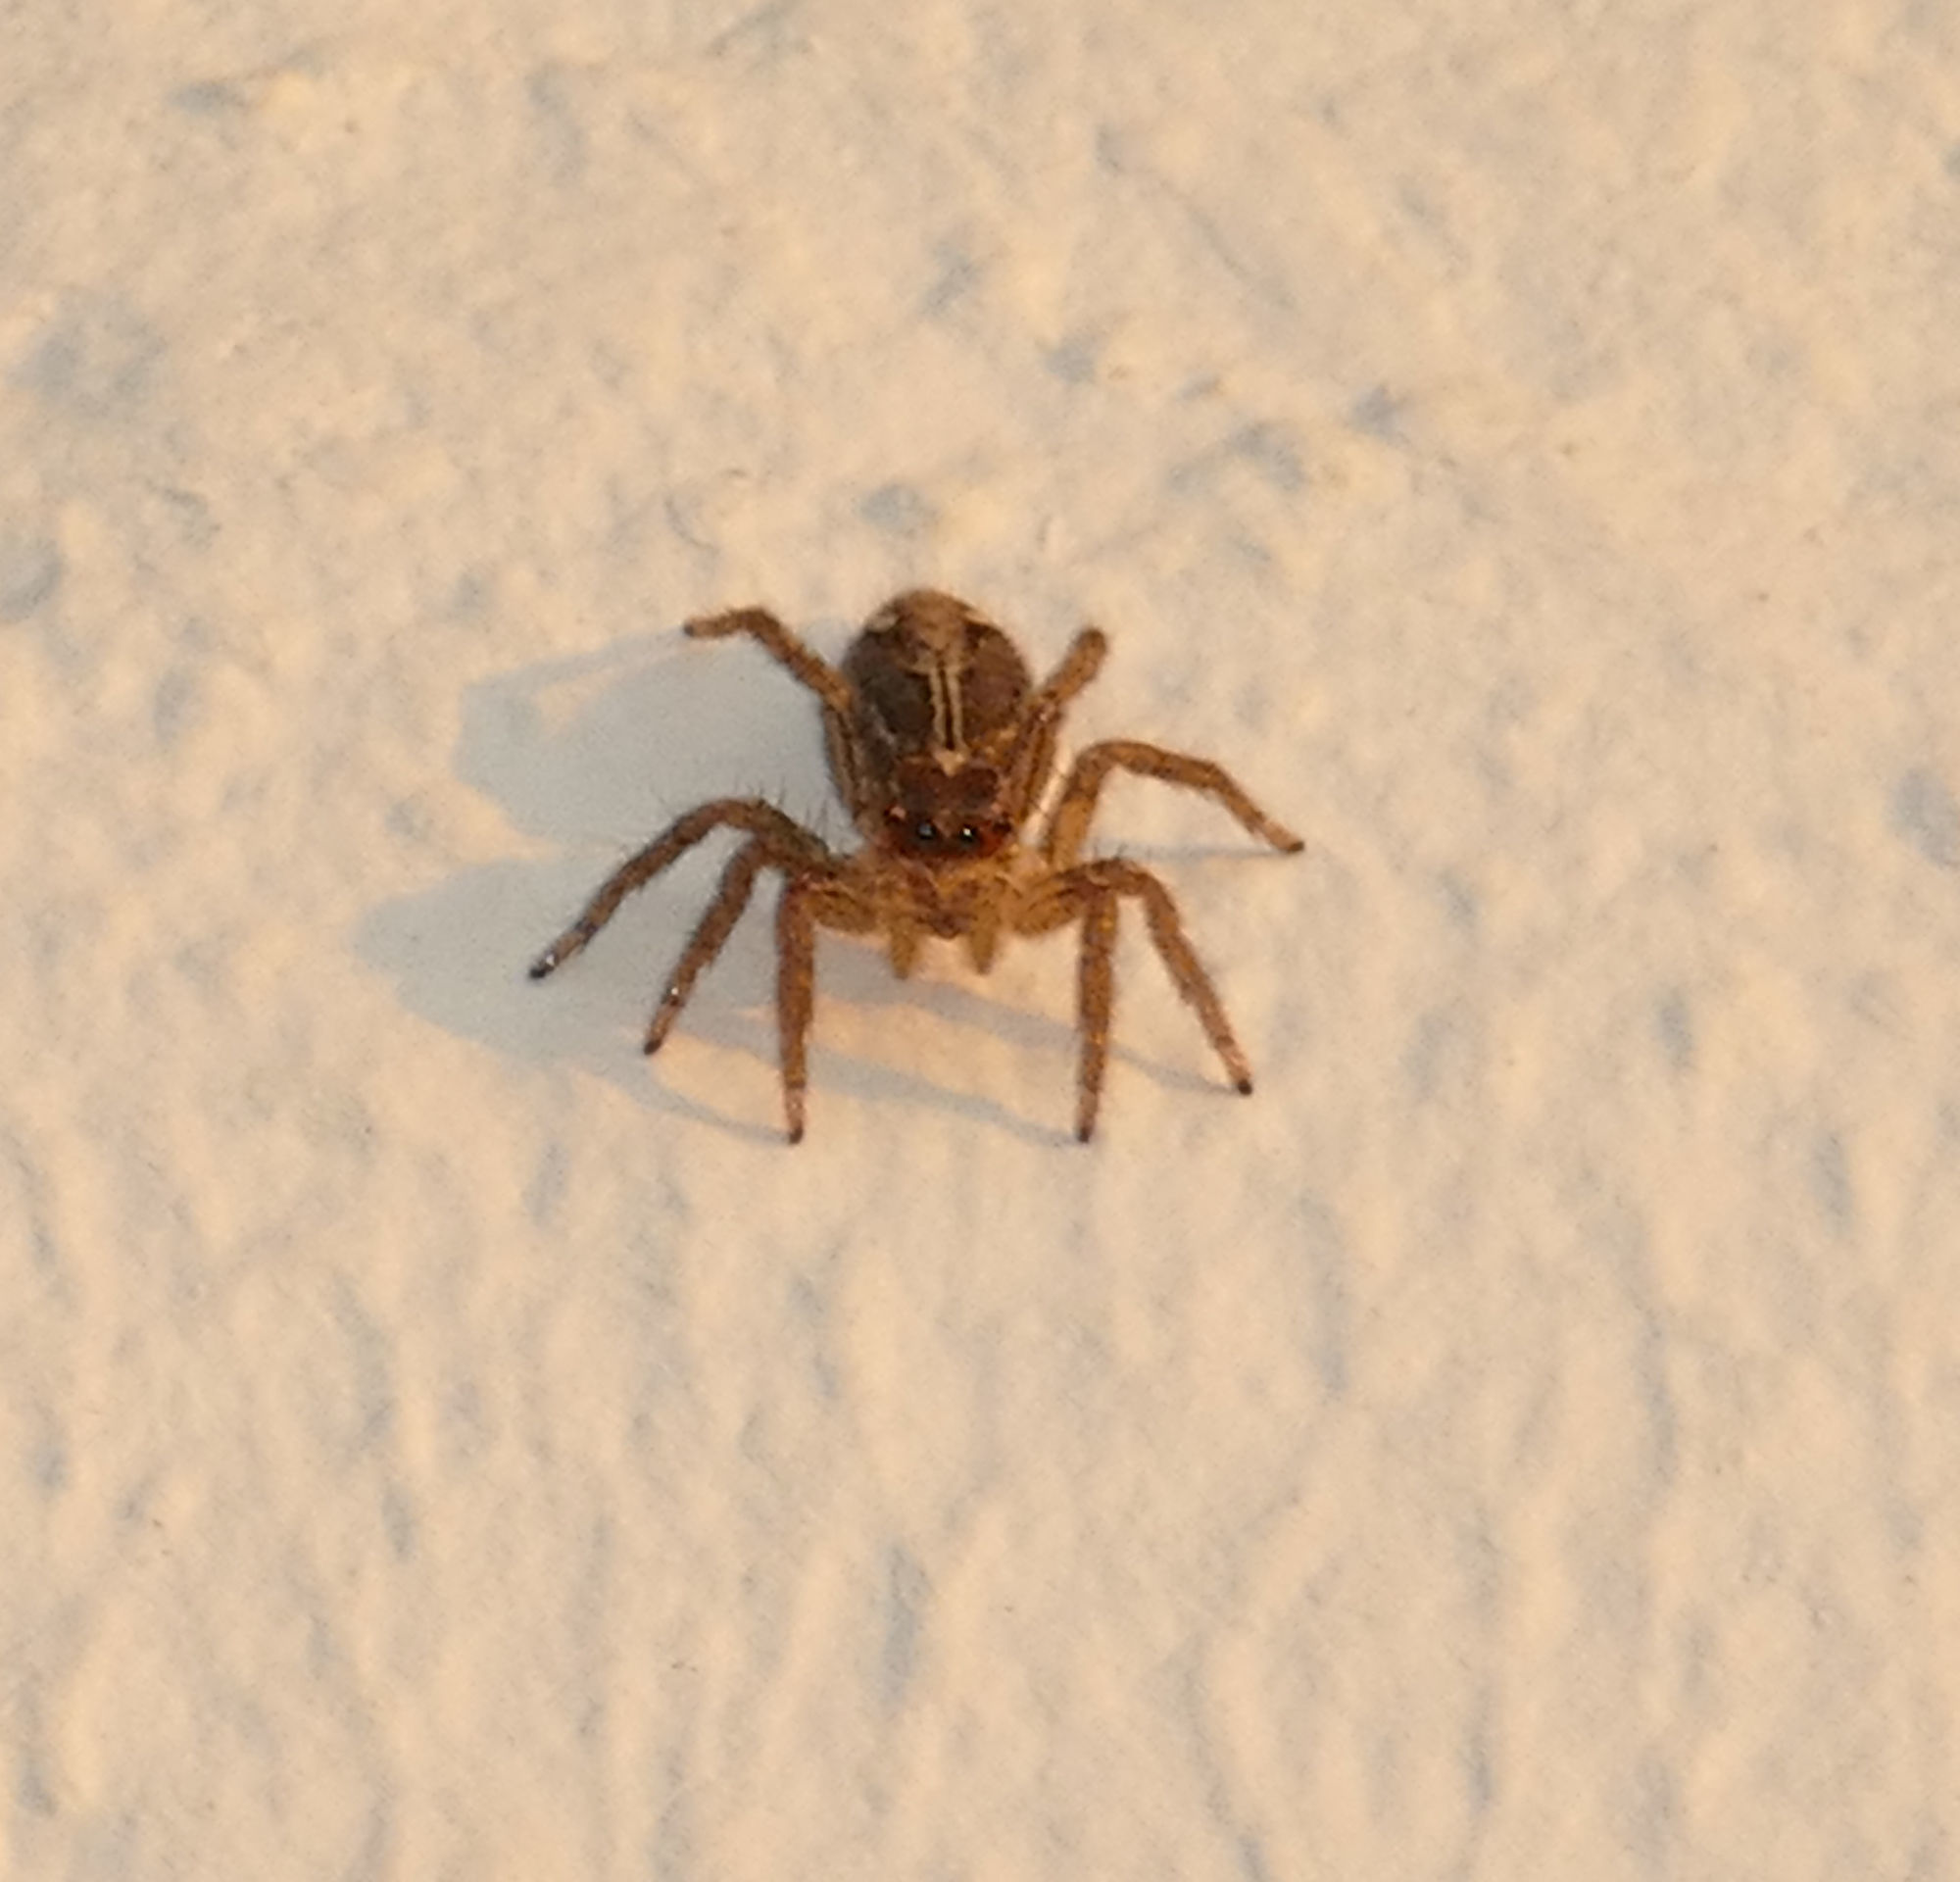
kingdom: Animalia
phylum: Arthropoda
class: Arachnida
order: Araneae
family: Salticidae
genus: Plexippus
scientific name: Plexippus paykulli
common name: Pantropical jumper
